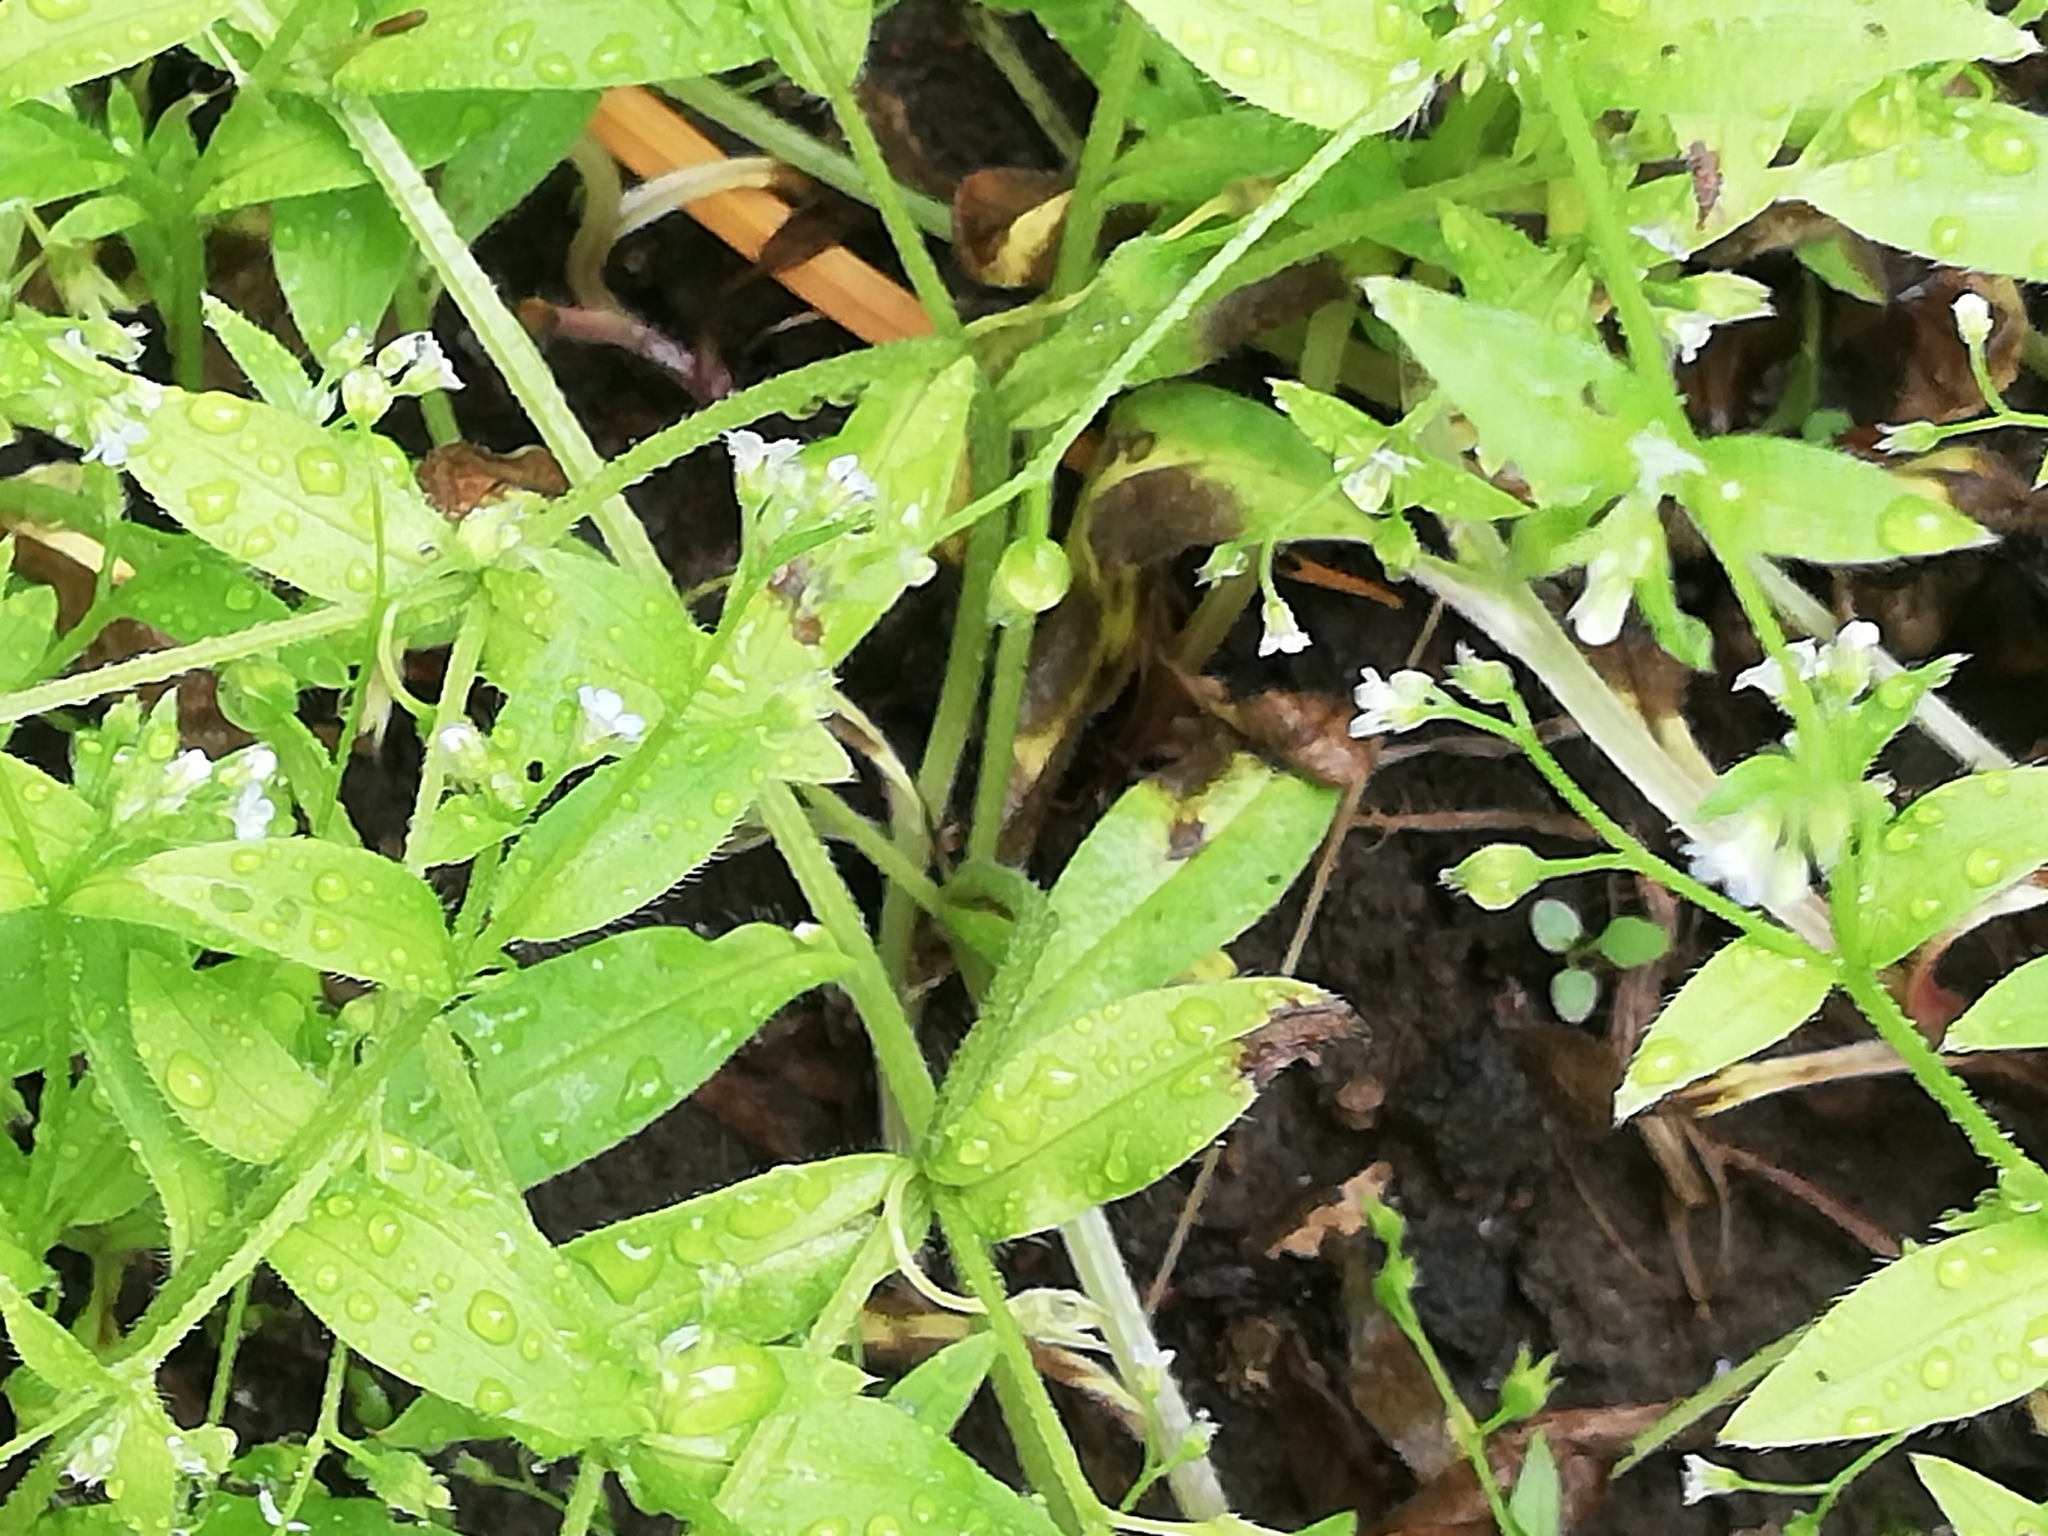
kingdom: Plantae
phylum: Tracheophyta
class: Magnoliopsida
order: Boraginales
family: Boraginaceae
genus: Myosotis
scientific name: Myosotis sparsiflora
